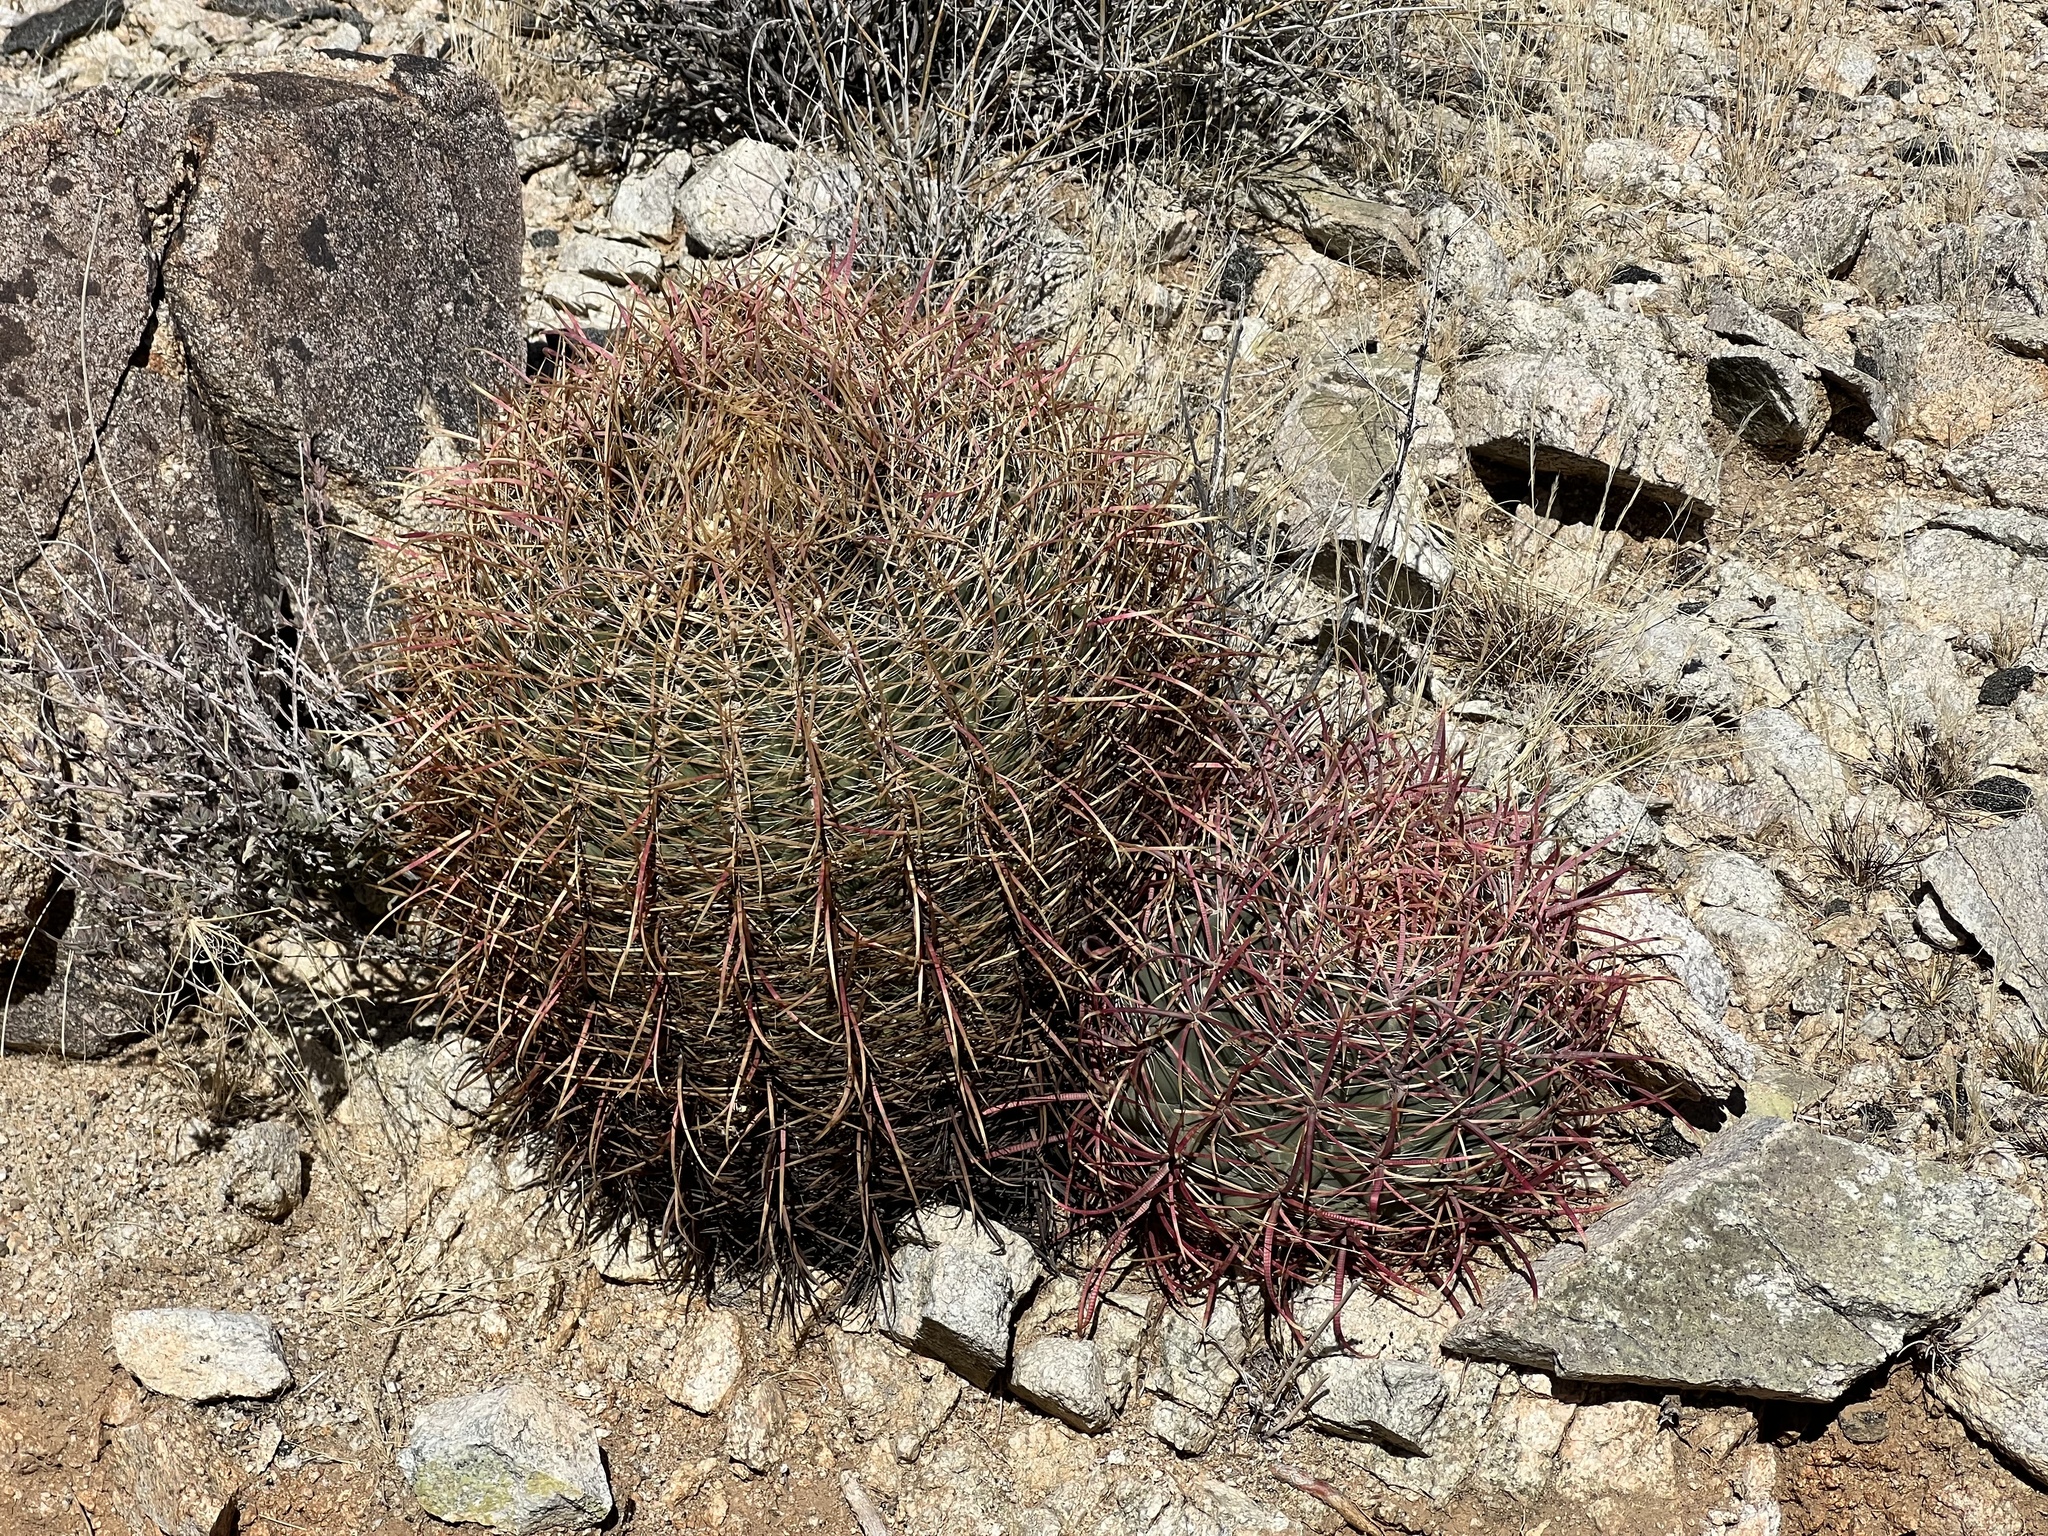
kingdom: Plantae
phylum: Tracheophyta
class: Magnoliopsida
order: Caryophyllales
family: Cactaceae
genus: Ferocactus
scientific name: Ferocactus cylindraceus
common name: California barrel cactus
